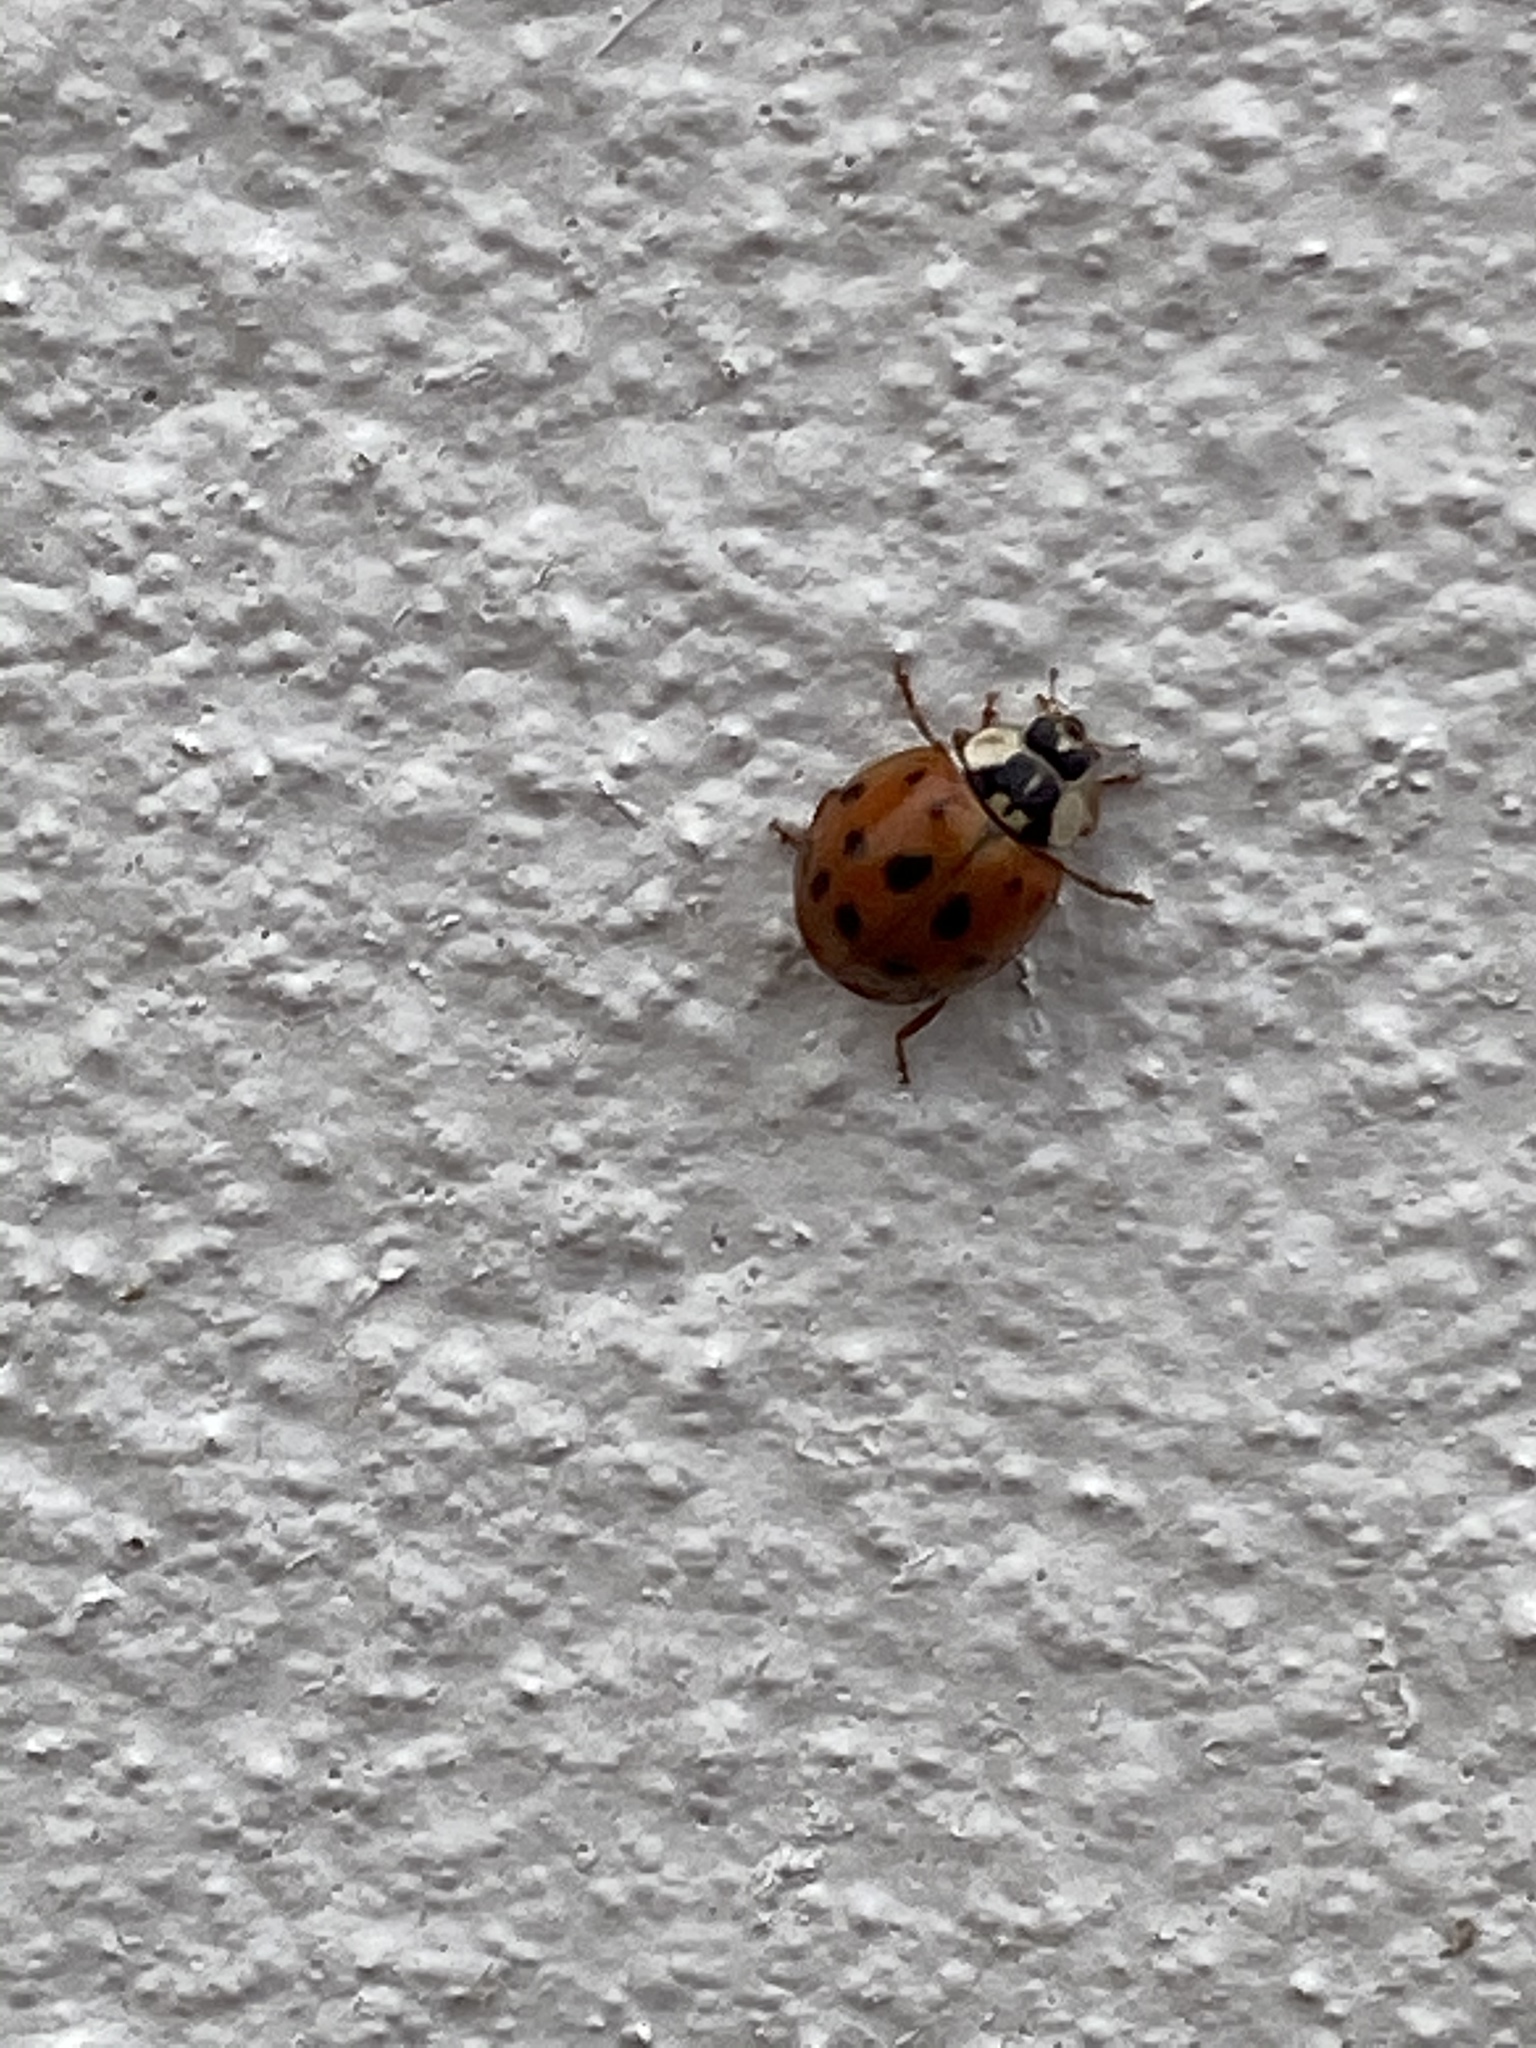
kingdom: Animalia
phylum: Arthropoda
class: Insecta
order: Coleoptera
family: Coccinellidae
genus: Harmonia
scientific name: Harmonia axyridis
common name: Harlequin ladybird
